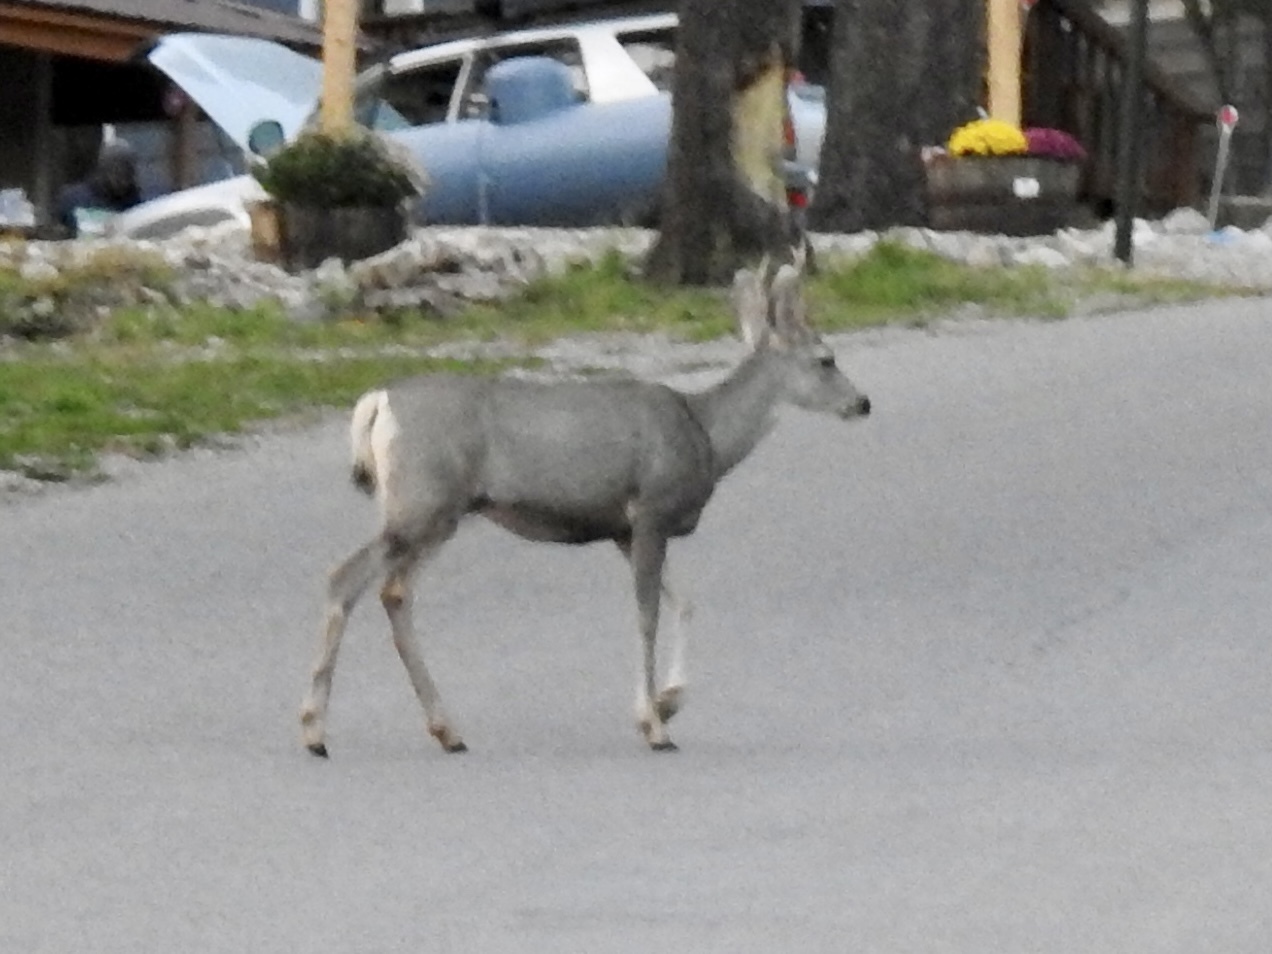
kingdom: Animalia
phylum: Chordata
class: Mammalia
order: Artiodactyla
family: Cervidae
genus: Odocoileus
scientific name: Odocoileus hemionus
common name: Mule deer
